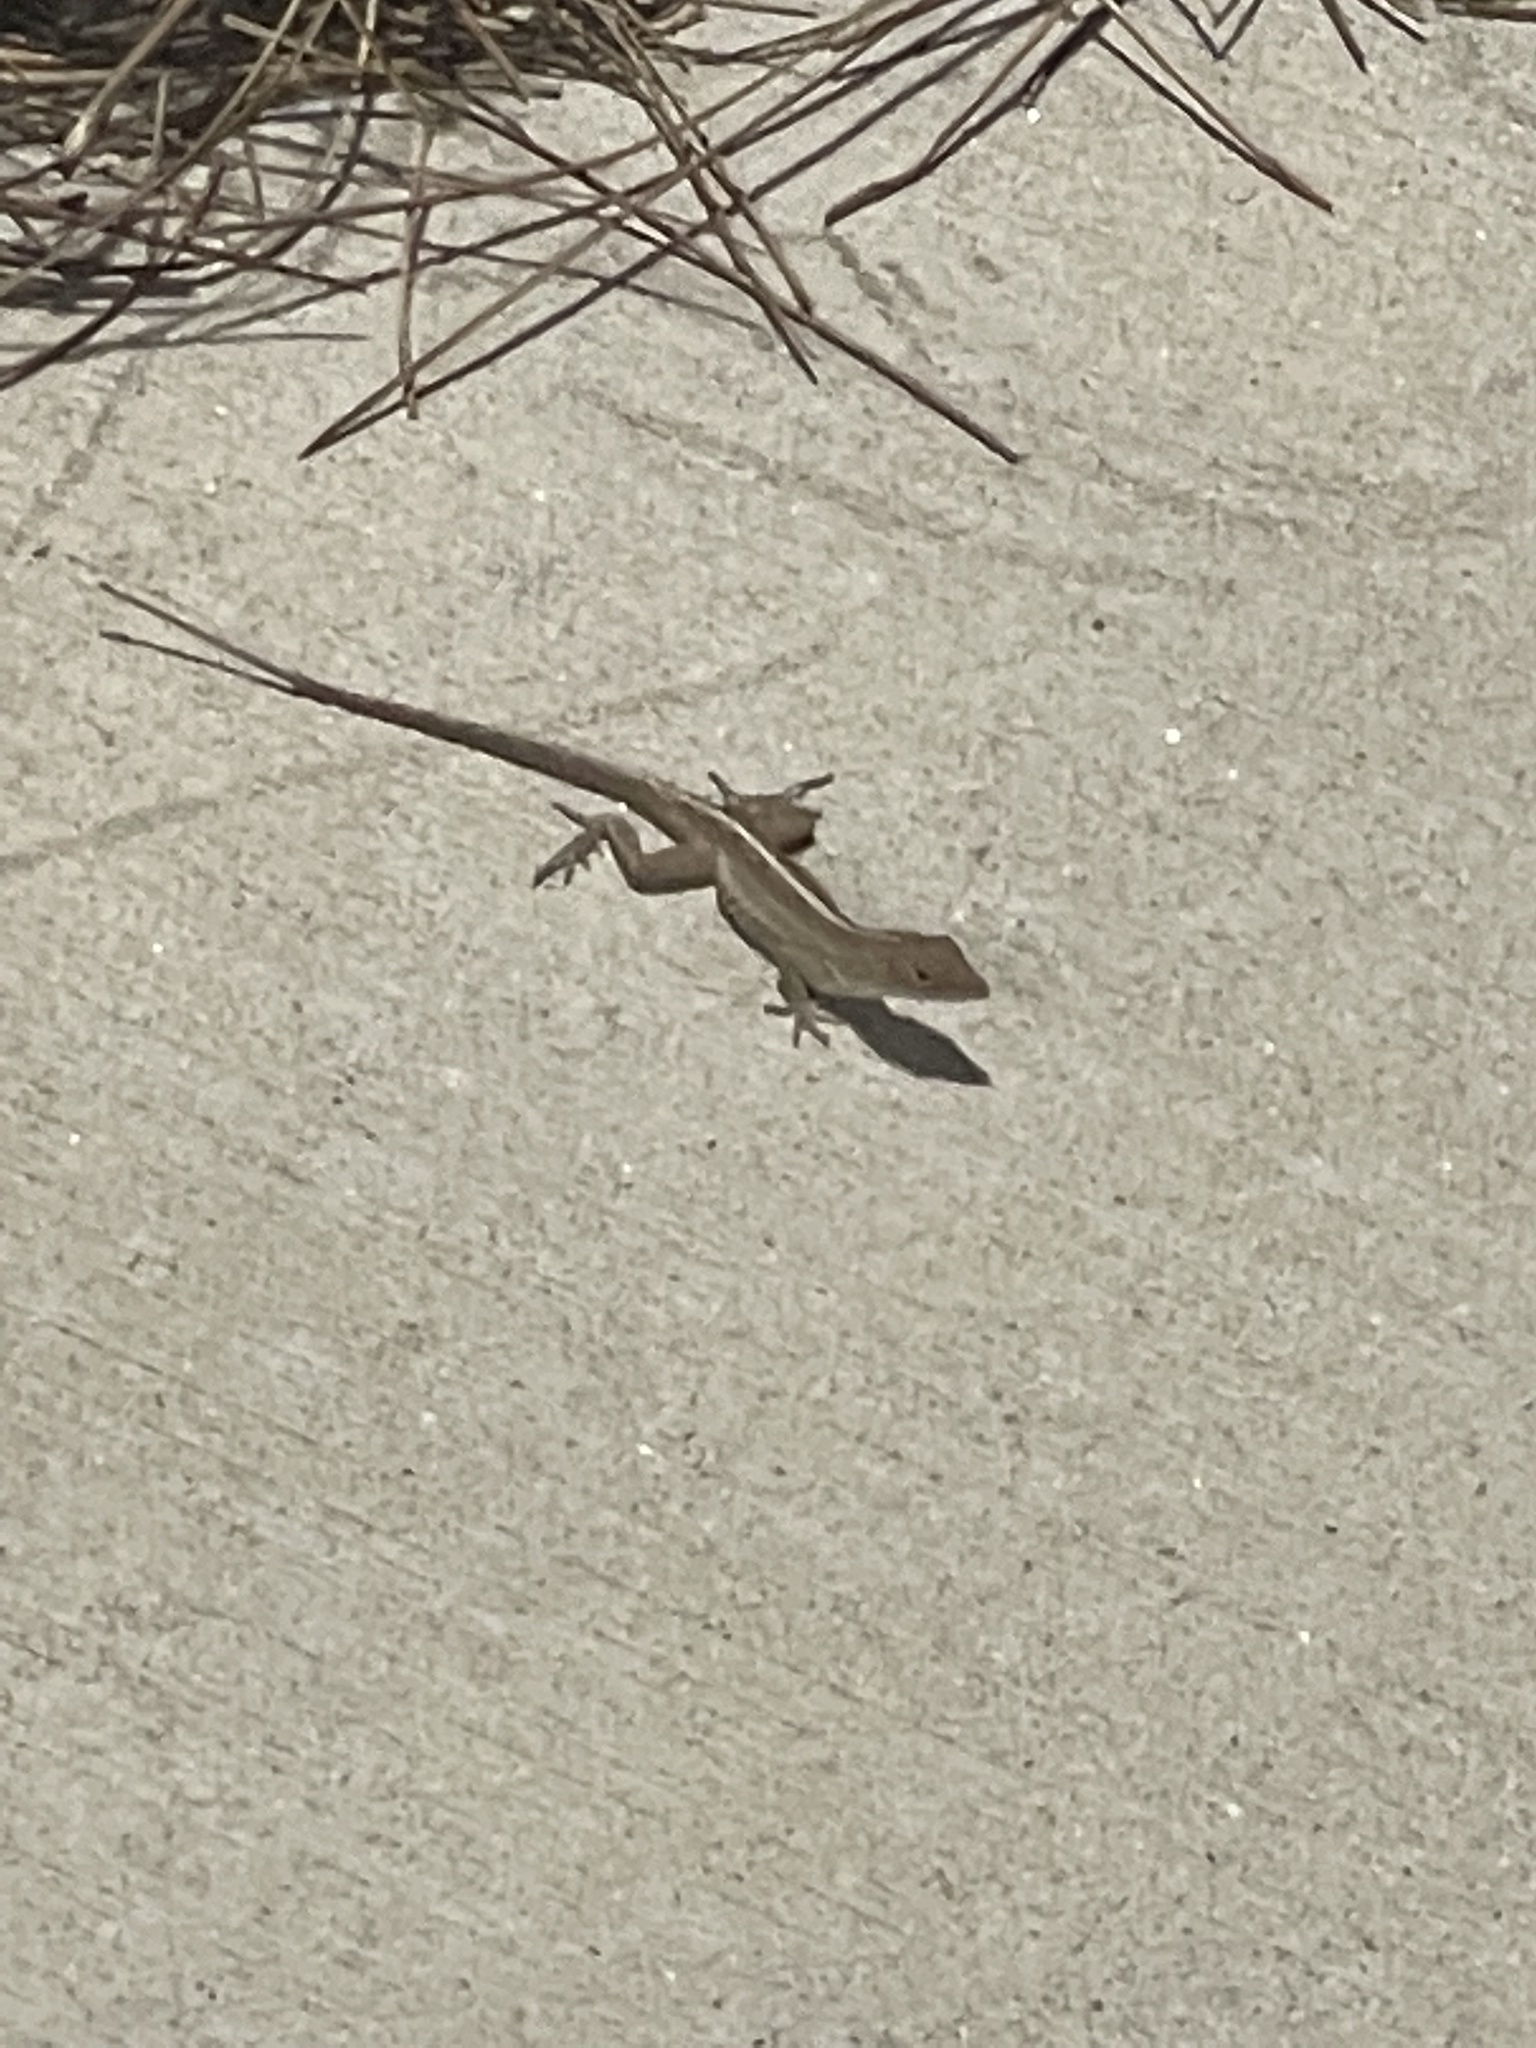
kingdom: Animalia
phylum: Chordata
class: Squamata
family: Dactyloidae
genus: Anolis
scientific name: Anolis sagrei
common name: Brown anole
